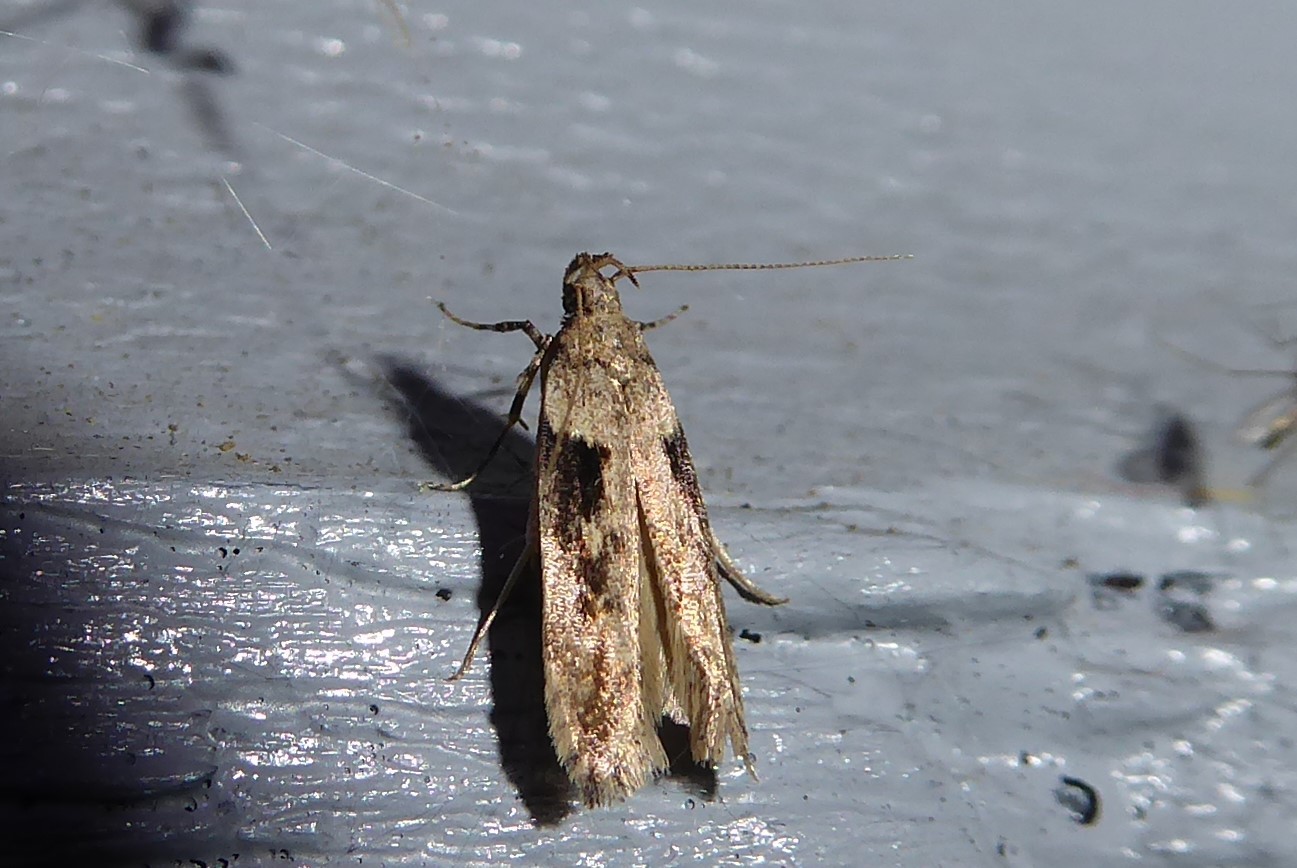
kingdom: Animalia
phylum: Arthropoda
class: Insecta
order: Lepidoptera
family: Gelechiidae
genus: Symmetrischema
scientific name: Symmetrischema tangolias
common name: Moth
